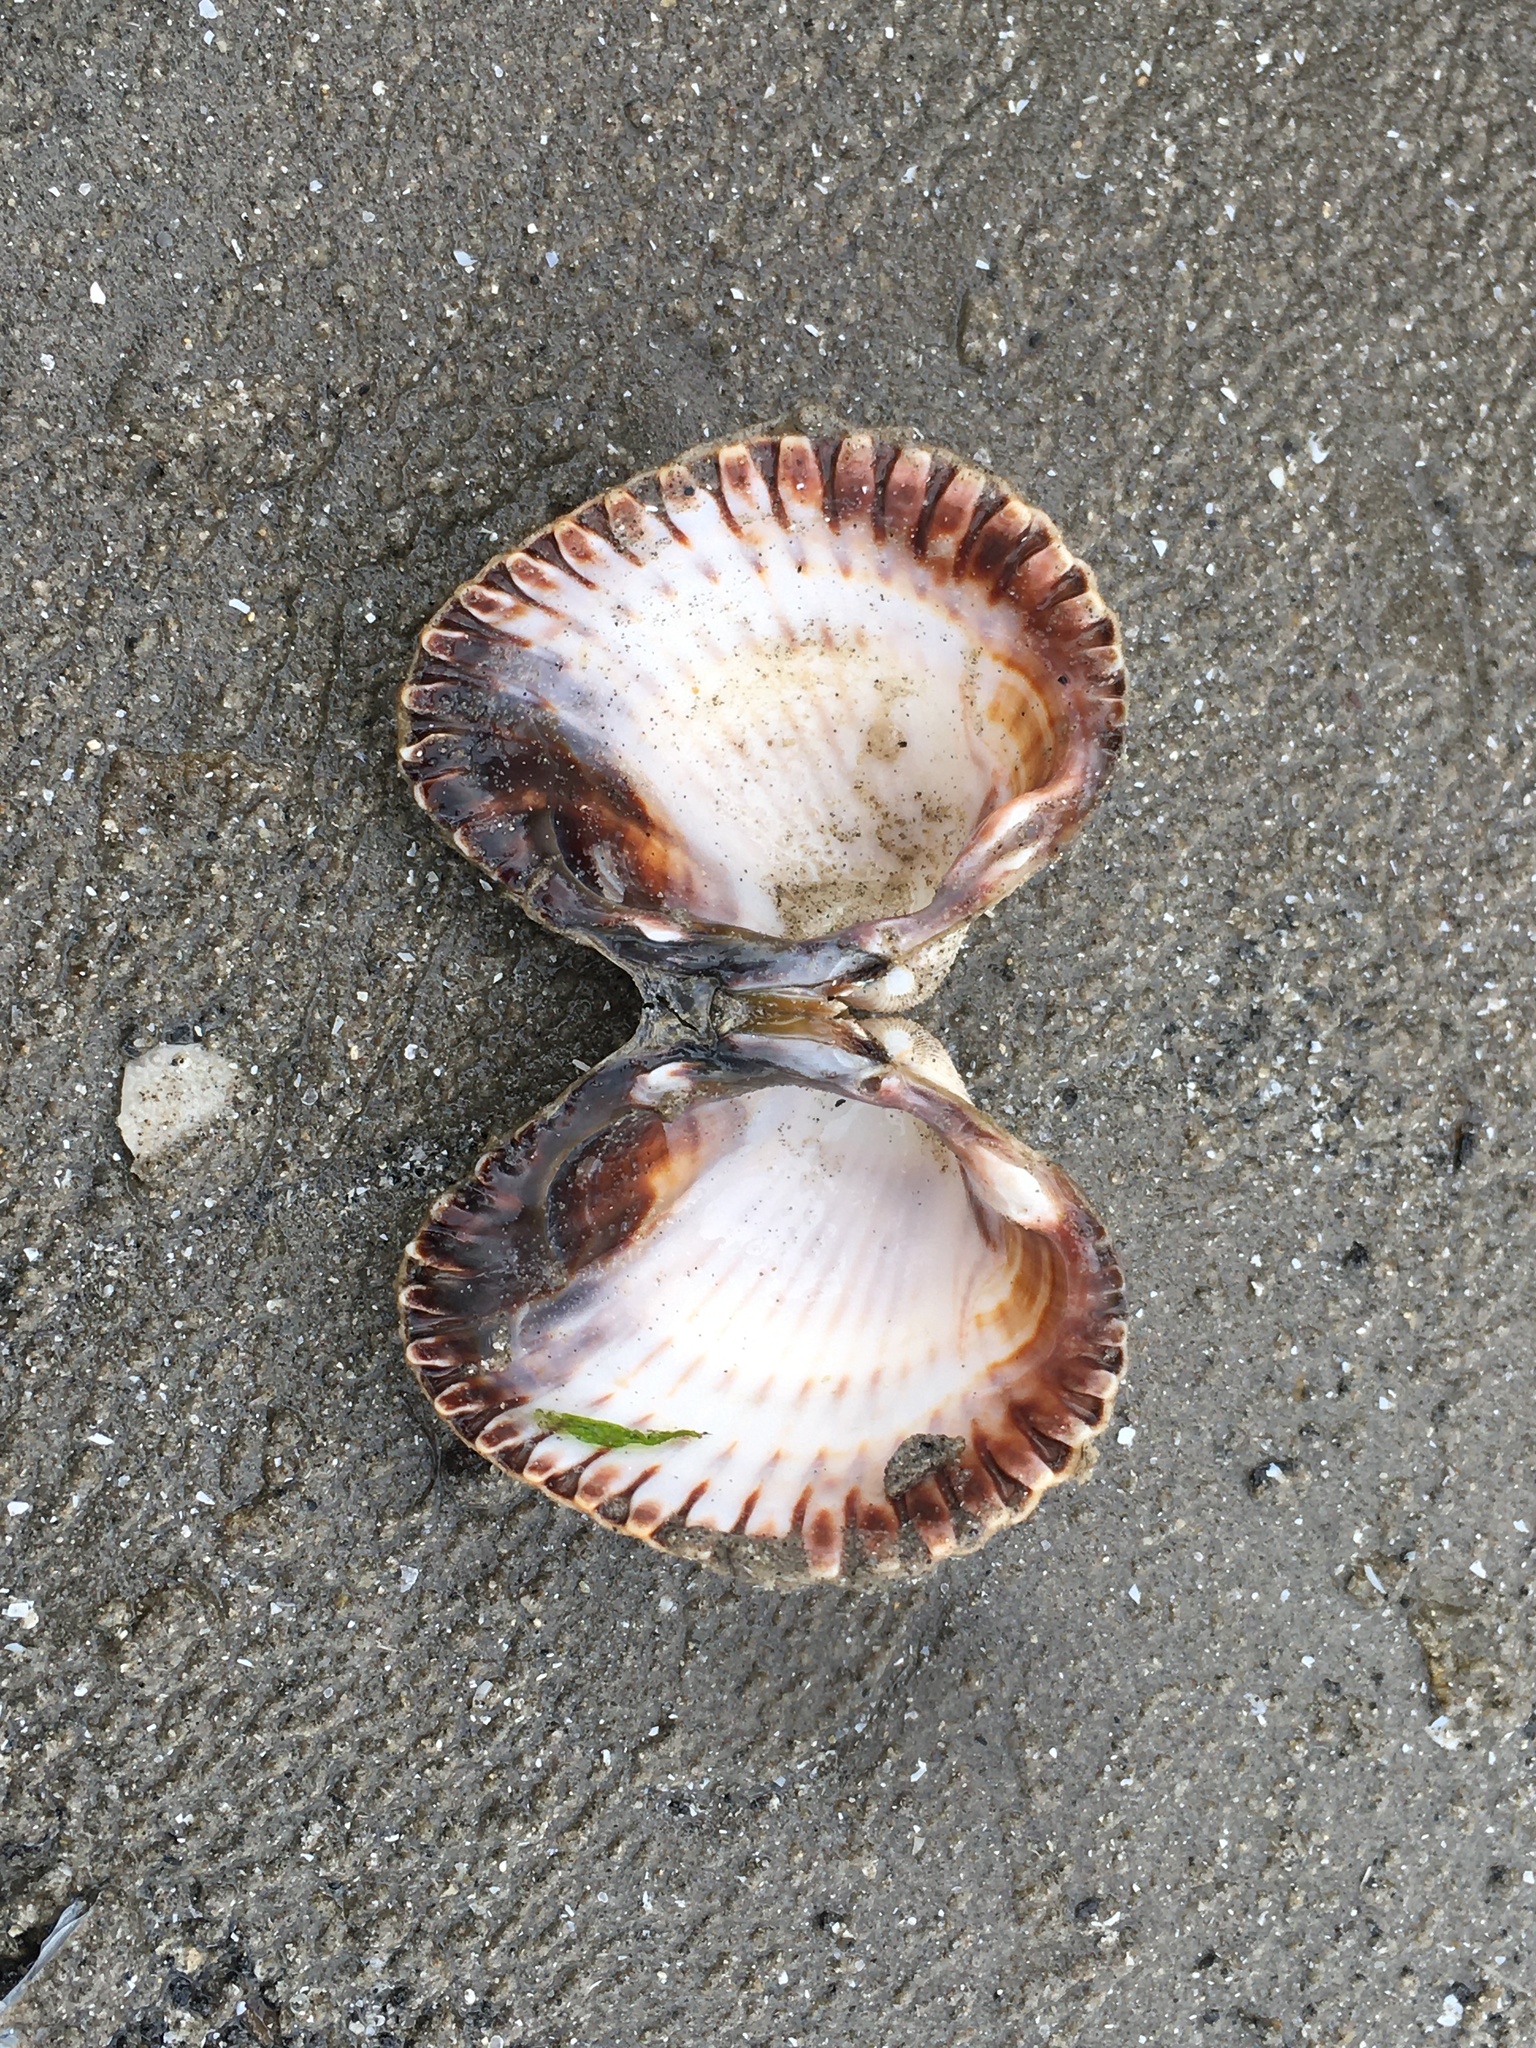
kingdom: Animalia
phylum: Mollusca
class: Bivalvia
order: Cardiida
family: Cardiidae
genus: Cerastoderma
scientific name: Cerastoderma edule
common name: Common cockle
